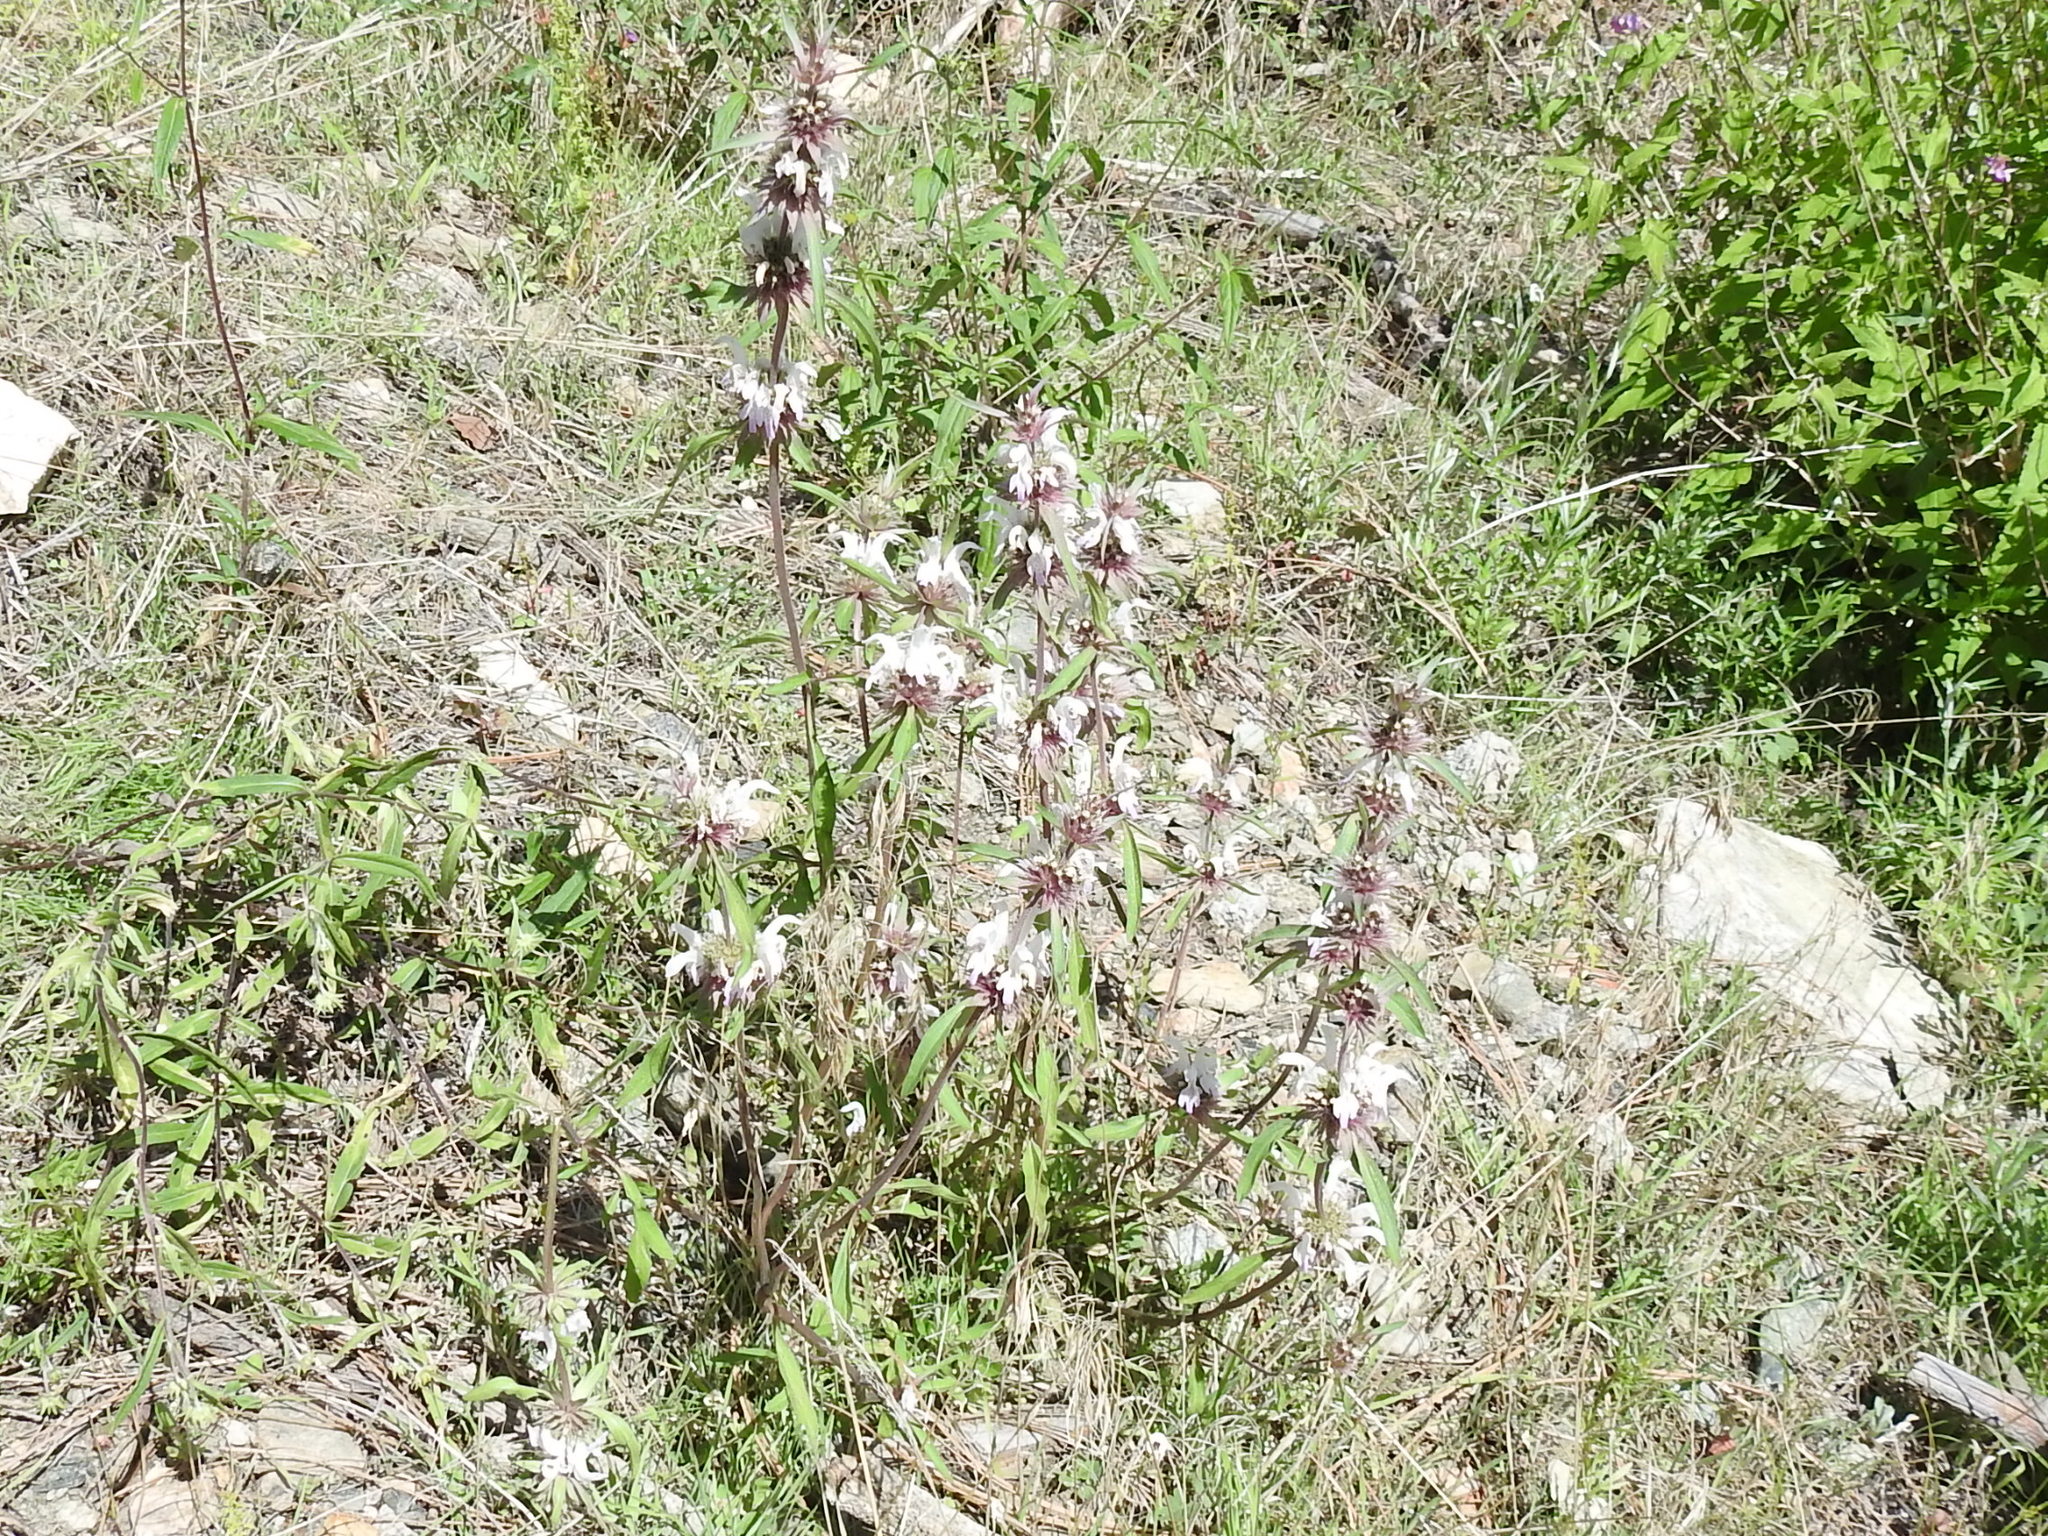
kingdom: Plantae
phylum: Tracheophyta
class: Magnoliopsida
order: Lamiales
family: Lamiaceae
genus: Monarda
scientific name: Monarda citriodora
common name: Lemon beebalm
